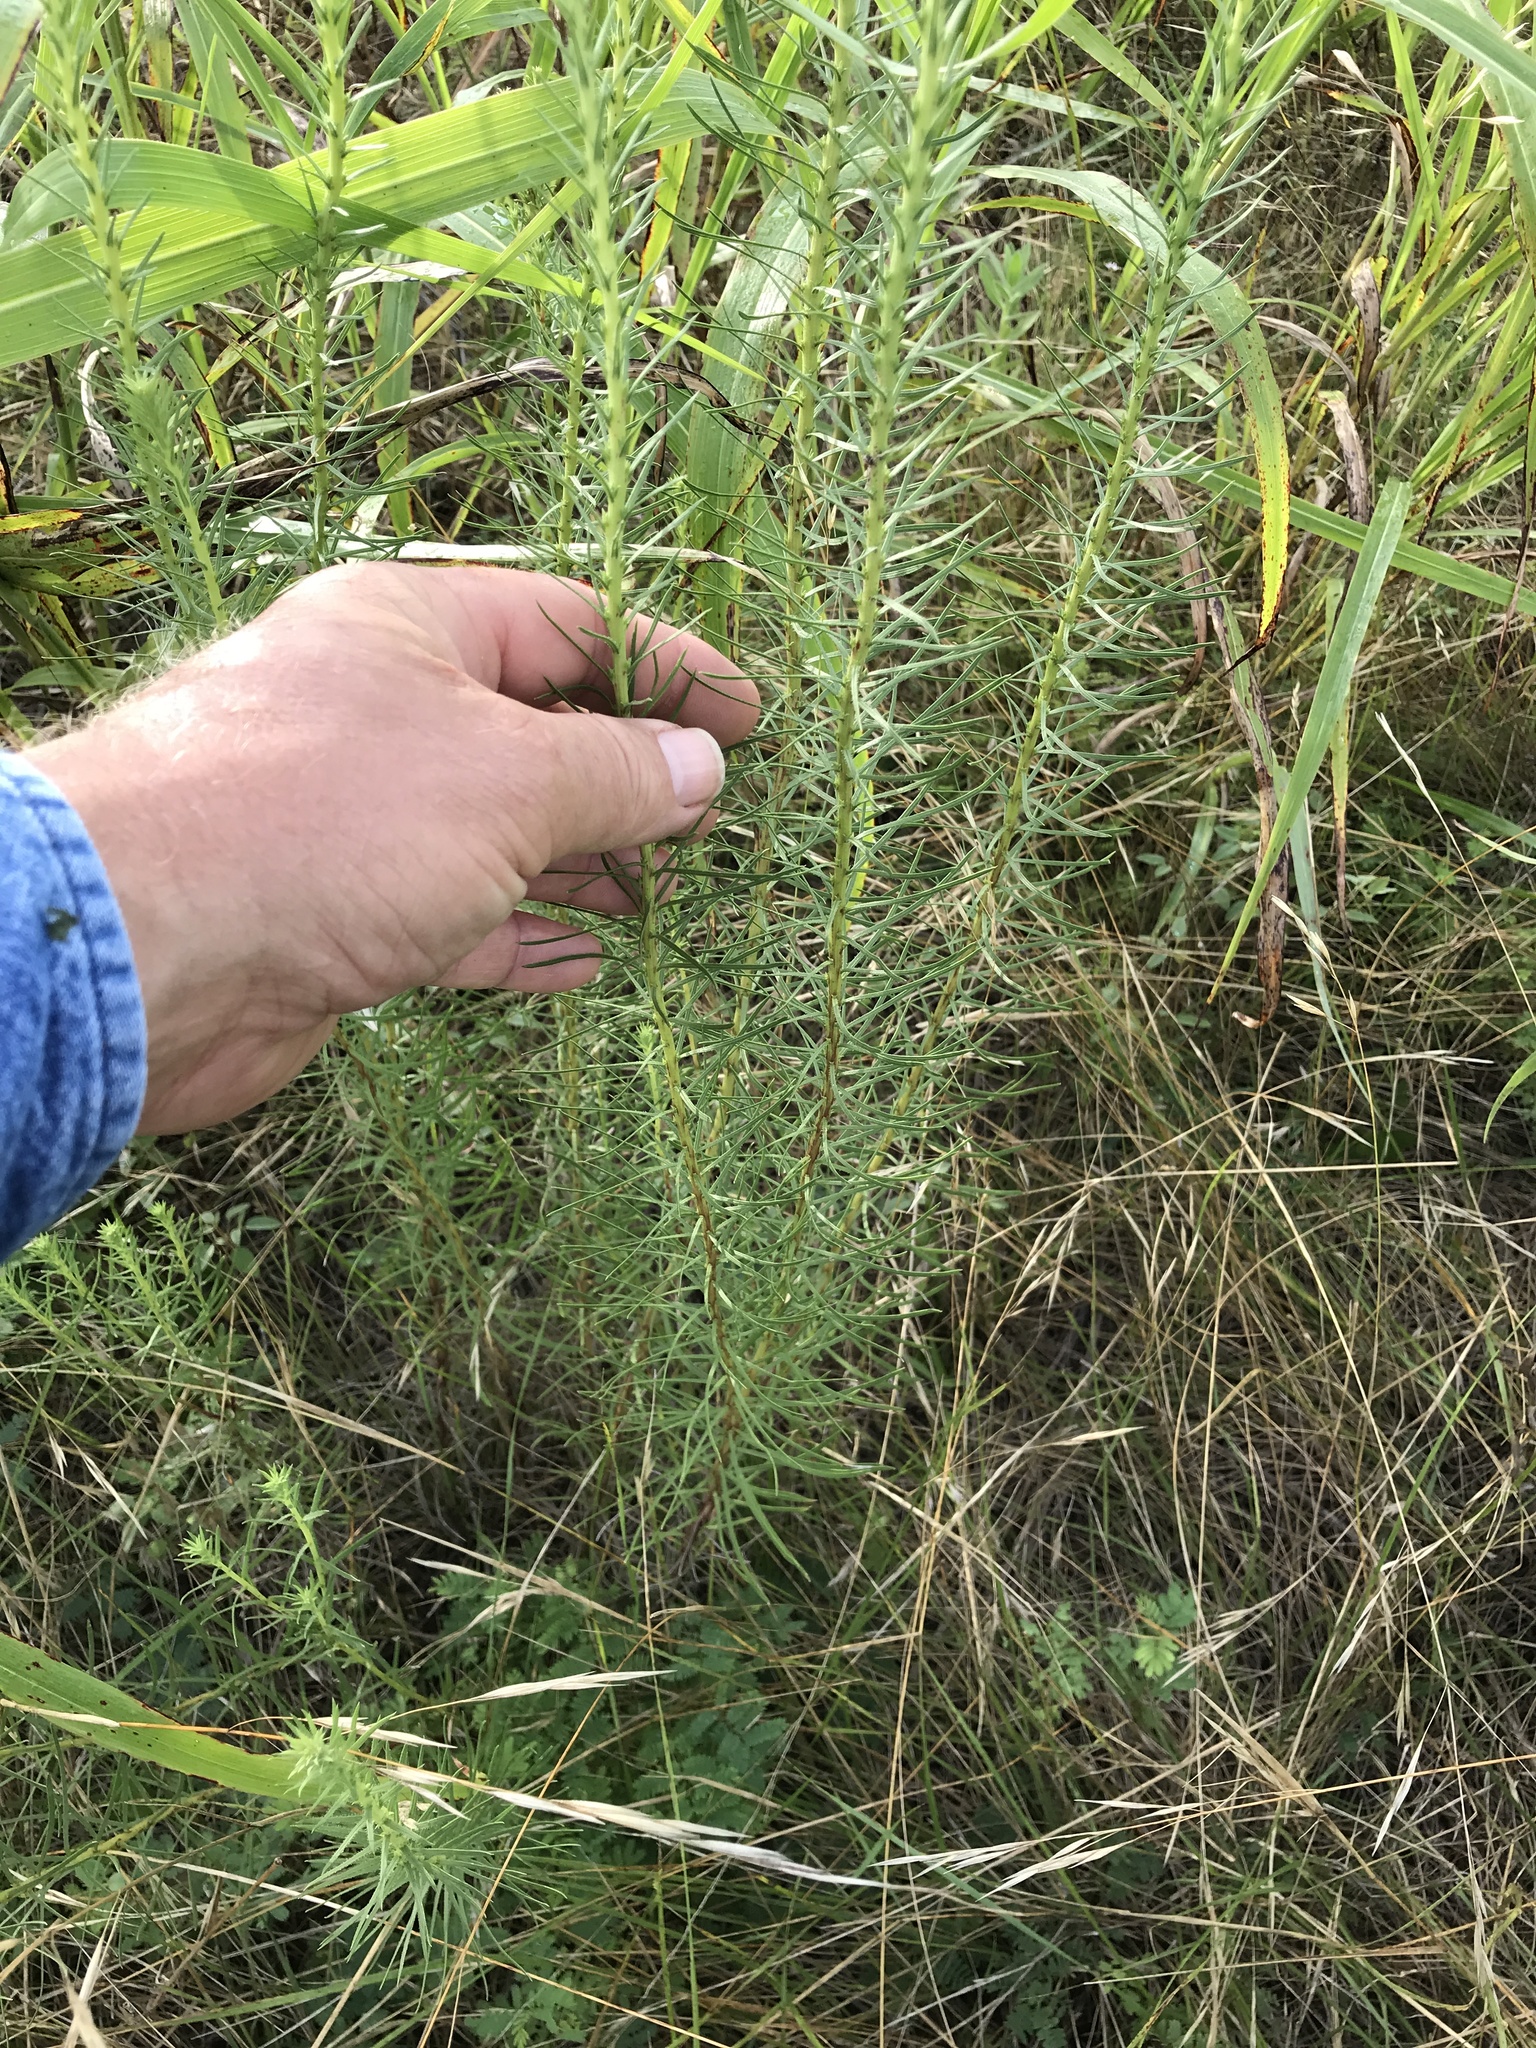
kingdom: Plantae
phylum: Tracheophyta
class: Magnoliopsida
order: Asterales
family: Asteraceae
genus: Liatris
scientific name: Liatris punctata
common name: Dotted gayfeather
